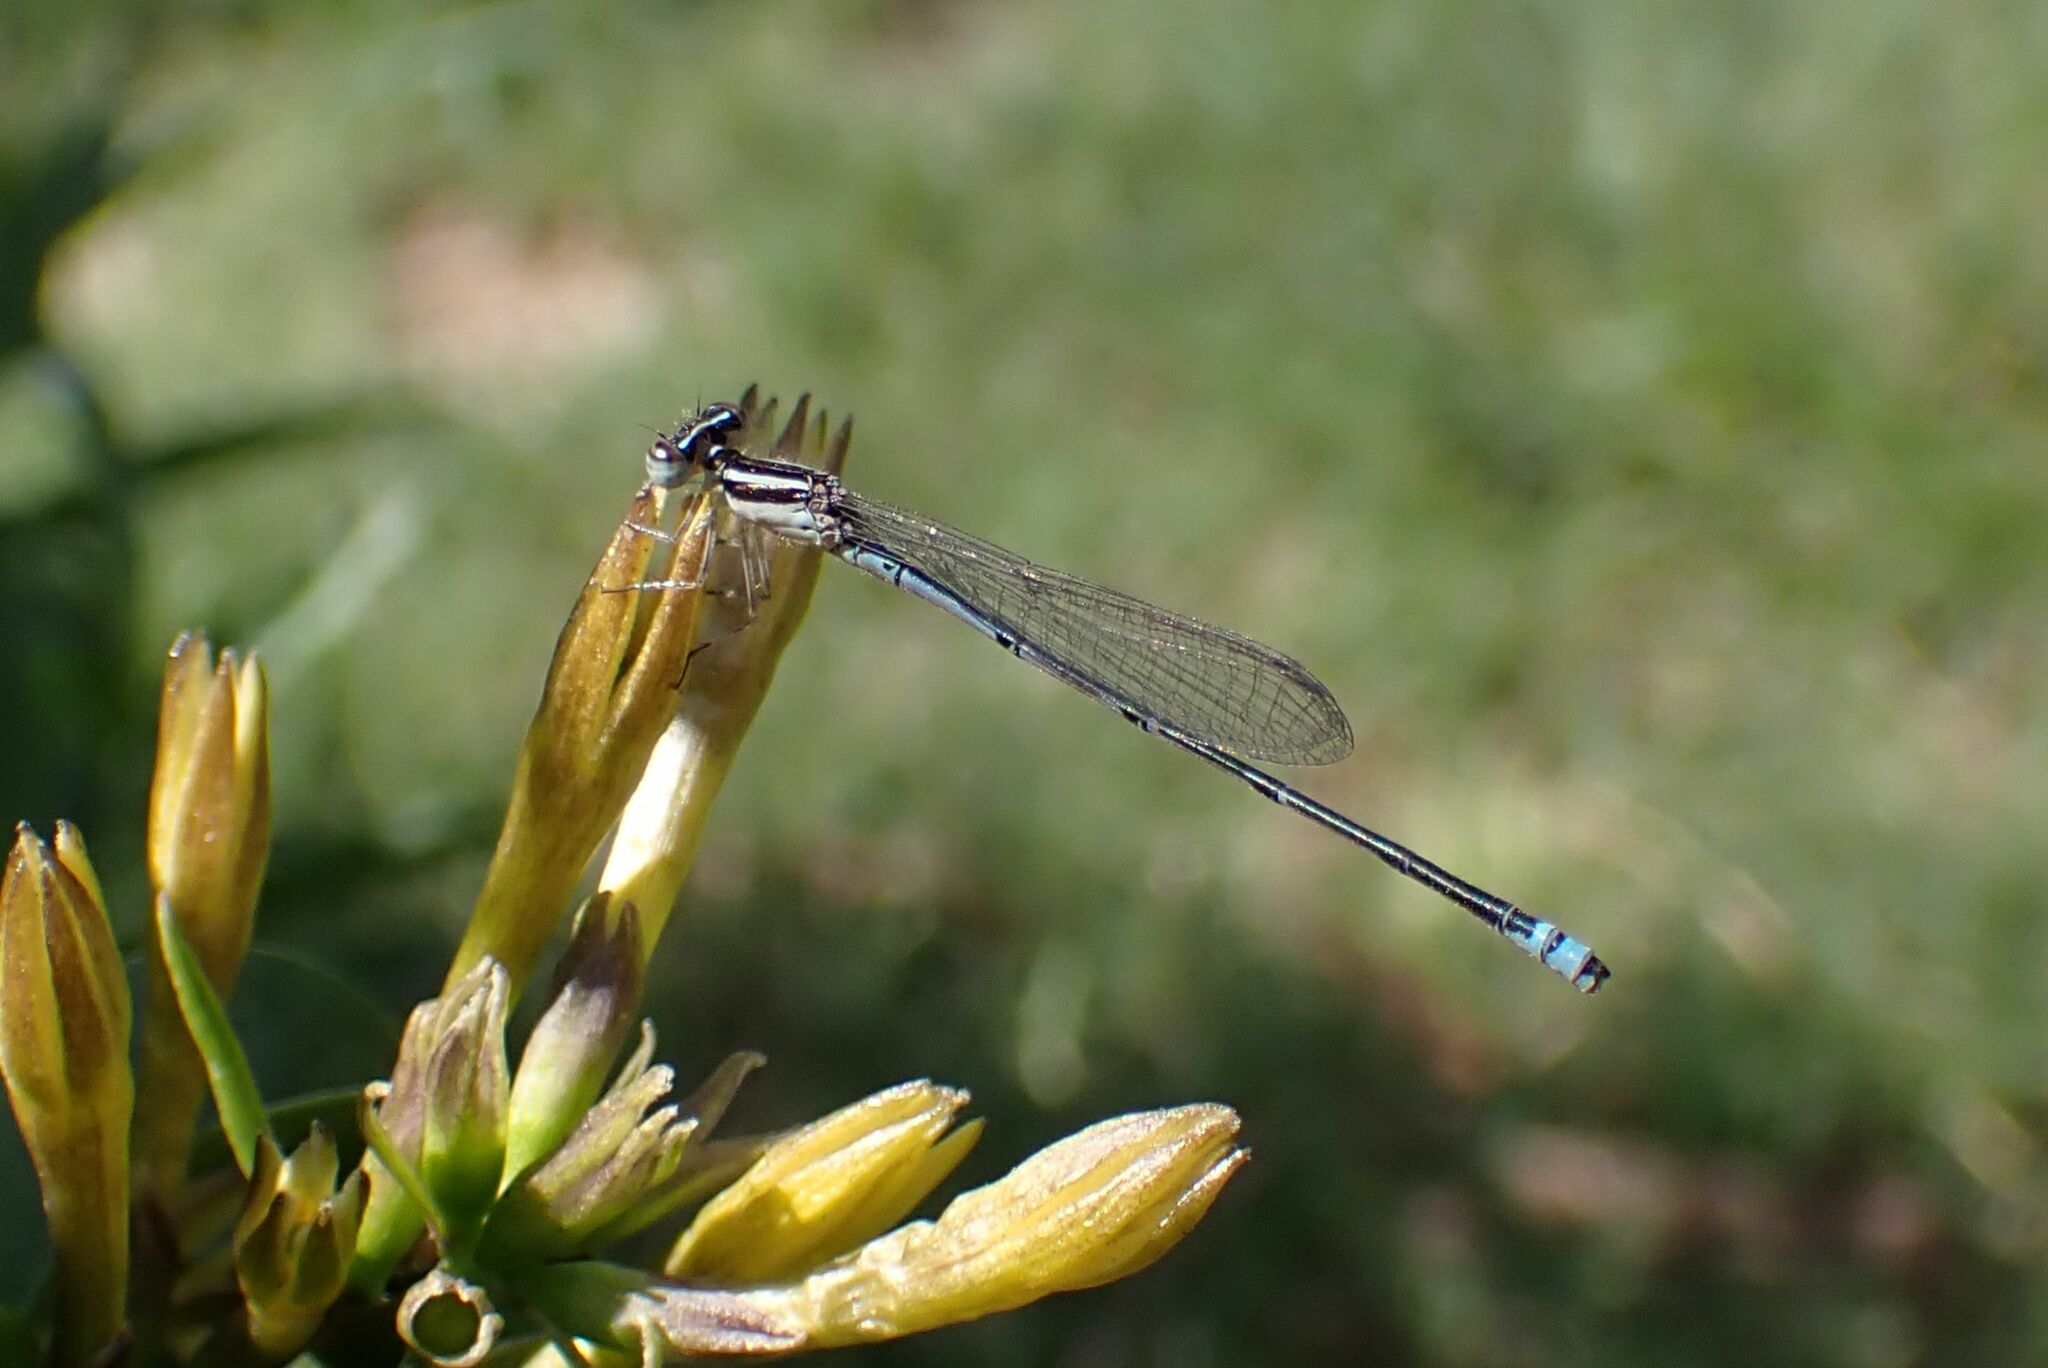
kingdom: Animalia
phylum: Arthropoda
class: Insecta
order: Odonata
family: Coenagrionidae
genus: Azuragrion
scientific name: Azuragrion nigridorsum
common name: Sailing azuret
